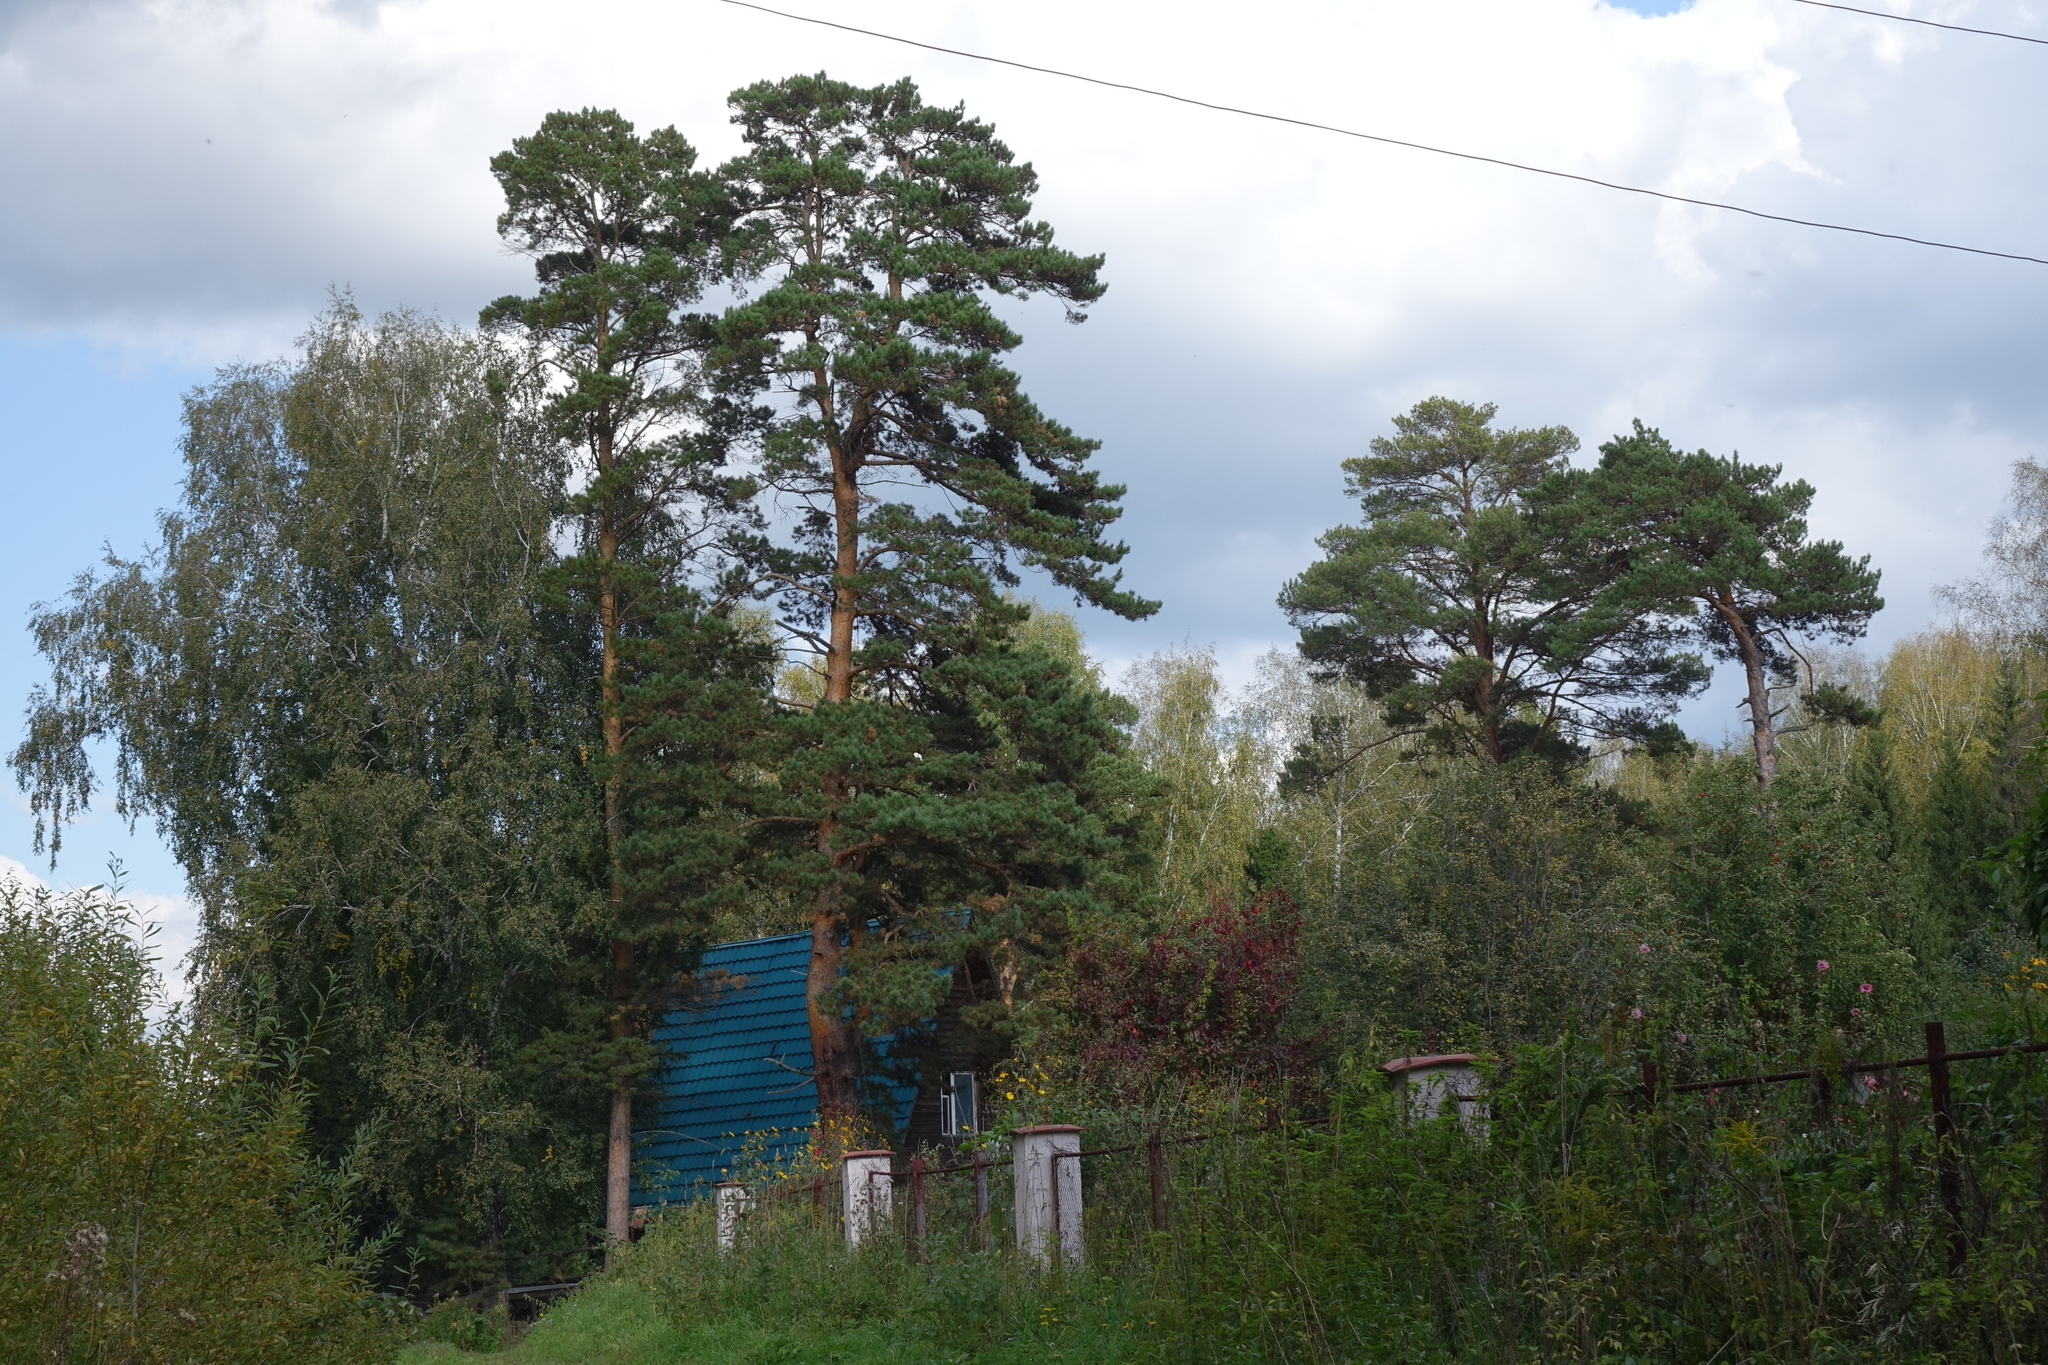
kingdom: Plantae
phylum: Tracheophyta
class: Pinopsida
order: Pinales
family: Pinaceae
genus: Pinus
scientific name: Pinus sylvestris
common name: Scots pine
